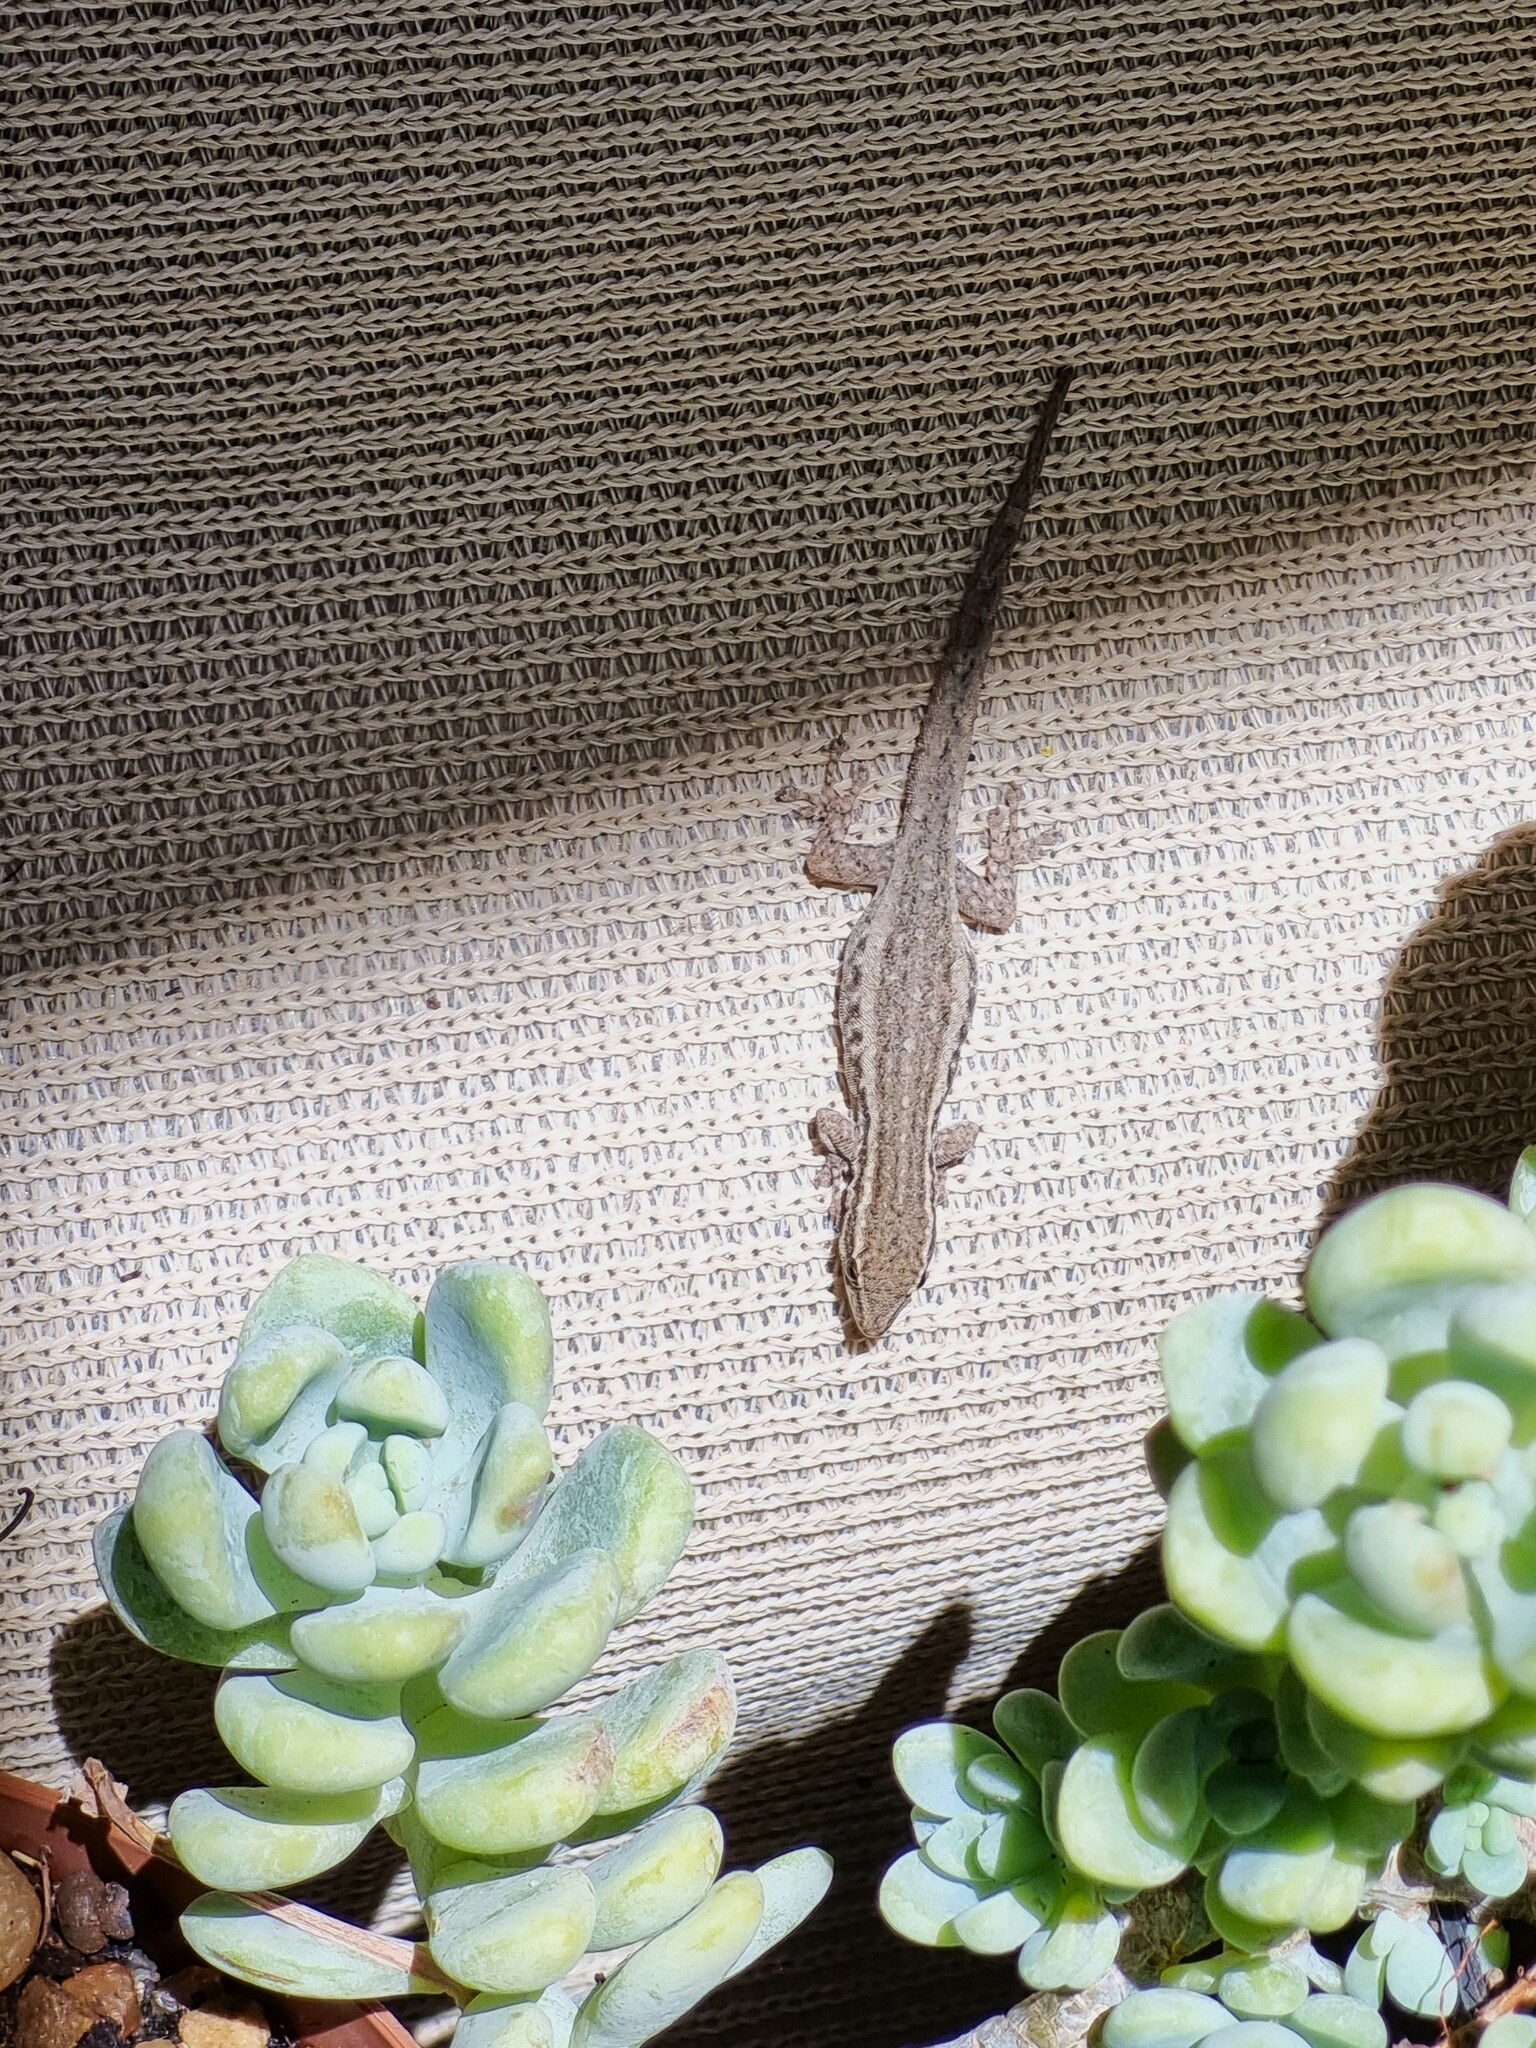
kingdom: Animalia
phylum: Chordata
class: Squamata
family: Gekkonidae
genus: Lygodactylus
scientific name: Lygodactylus capensis
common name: Cape dwarf gecko
